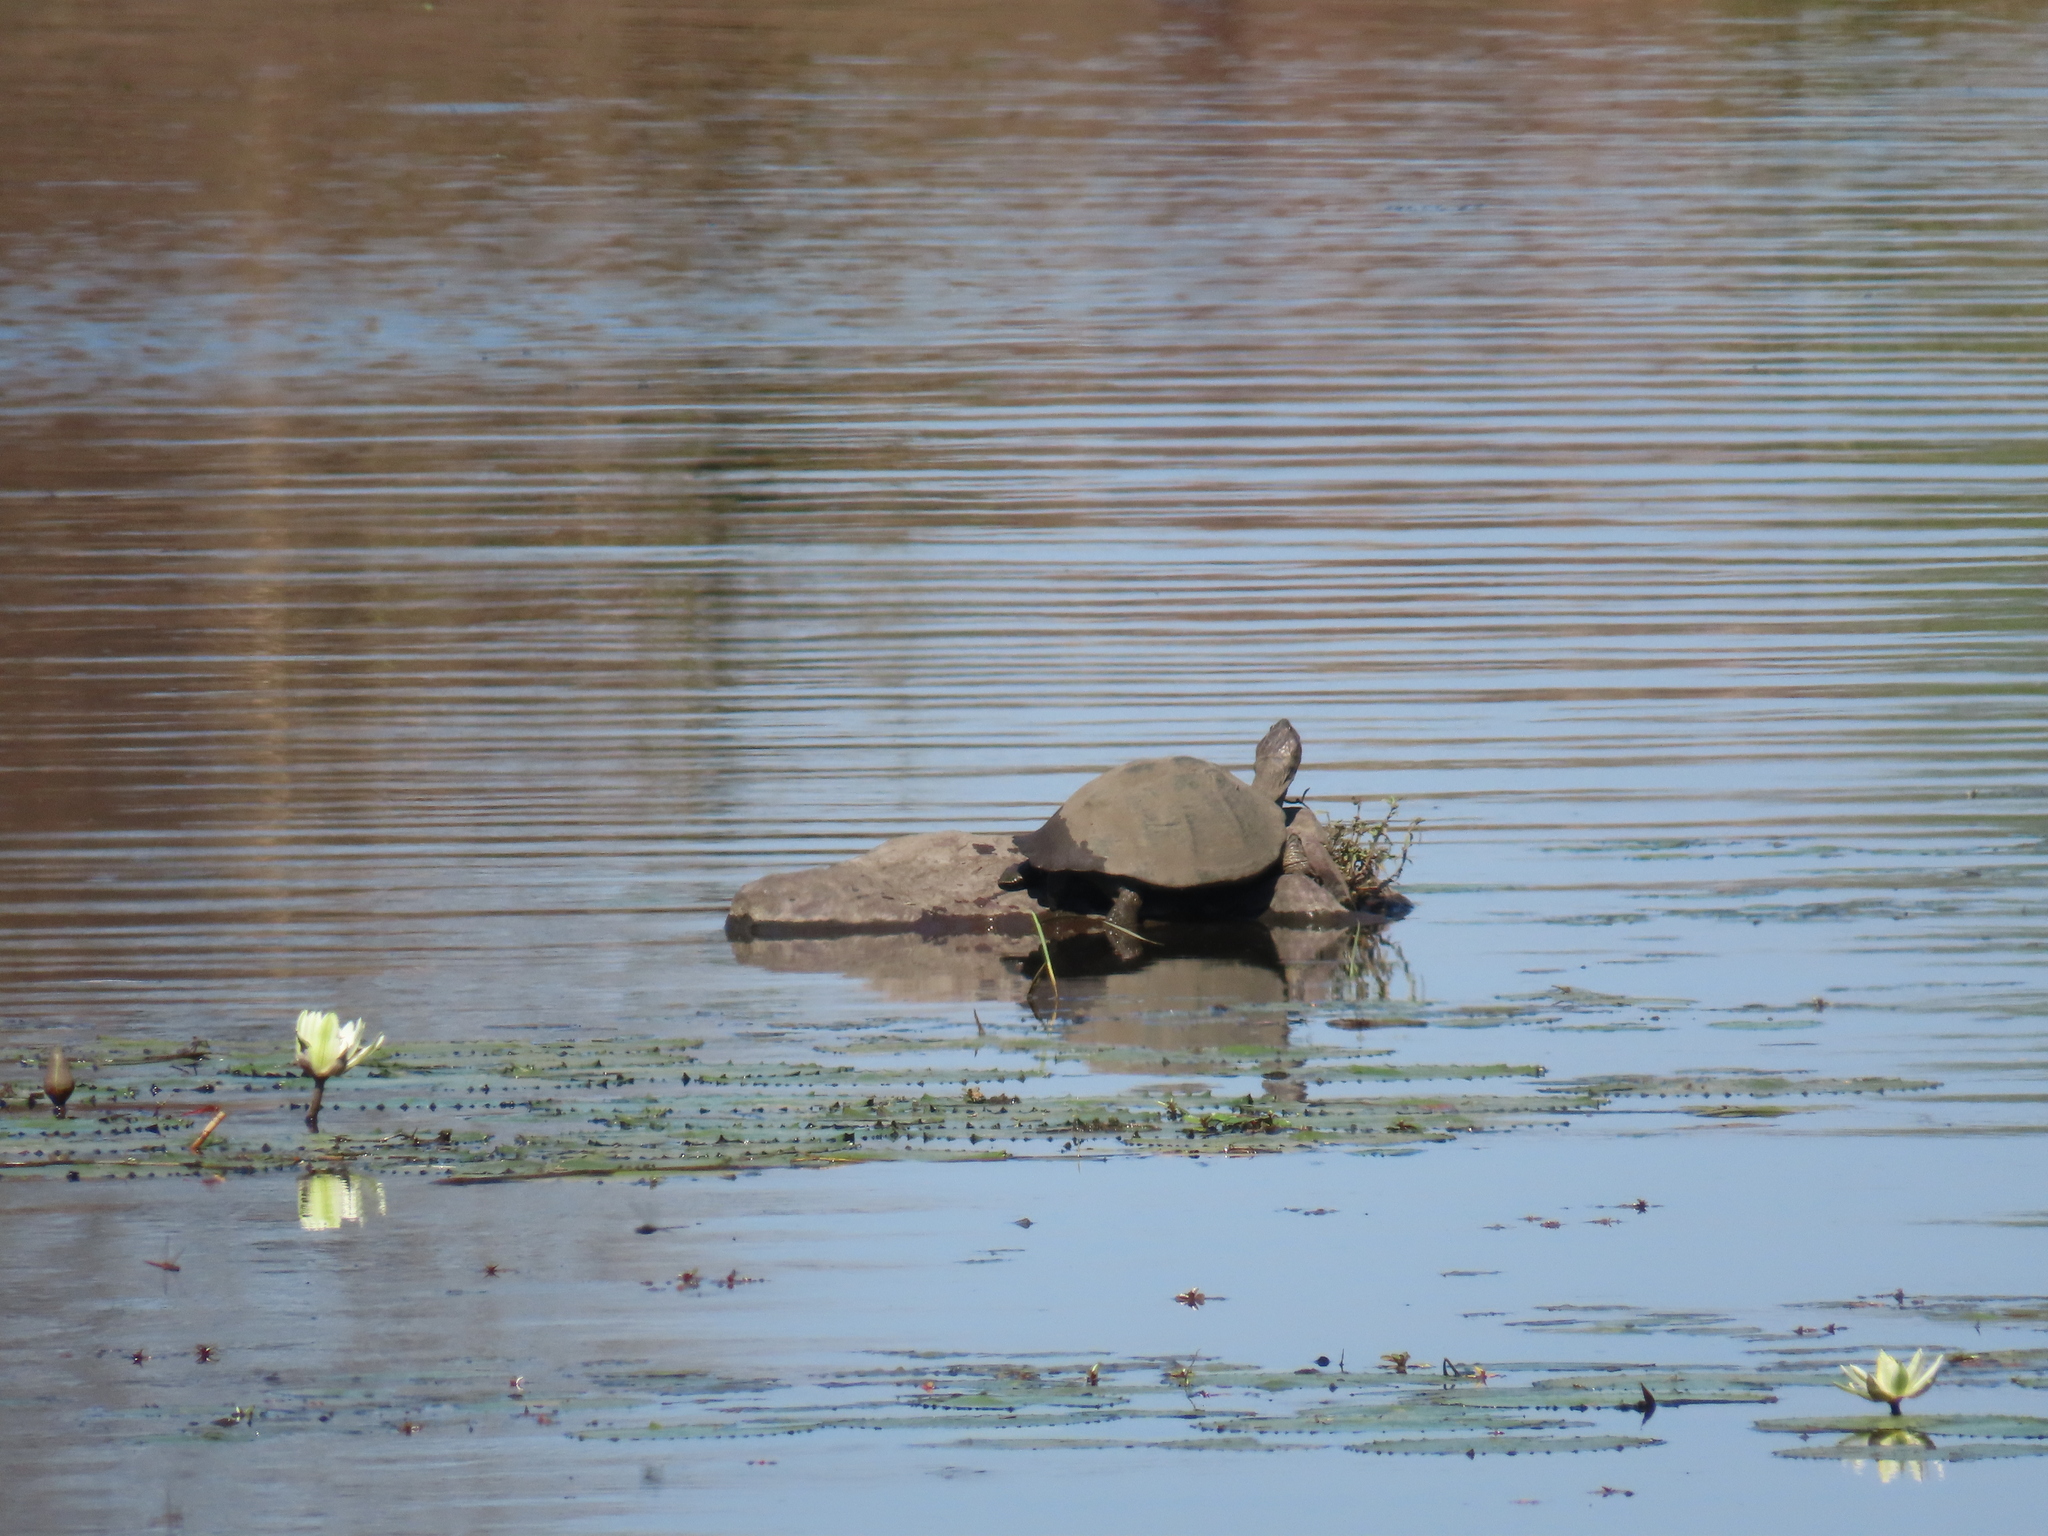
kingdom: Animalia
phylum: Chordata
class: Testudines
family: Pelomedusidae
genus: Pelusios
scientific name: Pelusios sinuatus
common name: Serrated hinged terrapin
